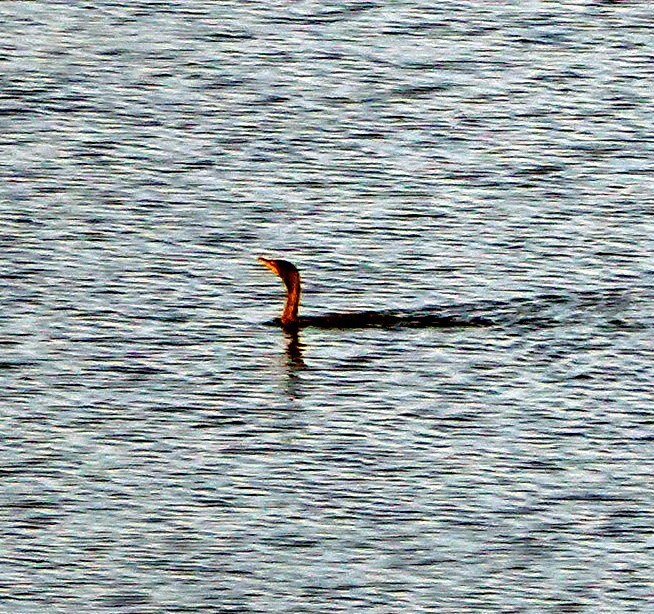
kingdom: Animalia
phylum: Chordata
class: Aves
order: Suliformes
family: Phalacrocoracidae
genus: Phalacrocorax
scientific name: Phalacrocorax auritus
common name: Double-crested cormorant
